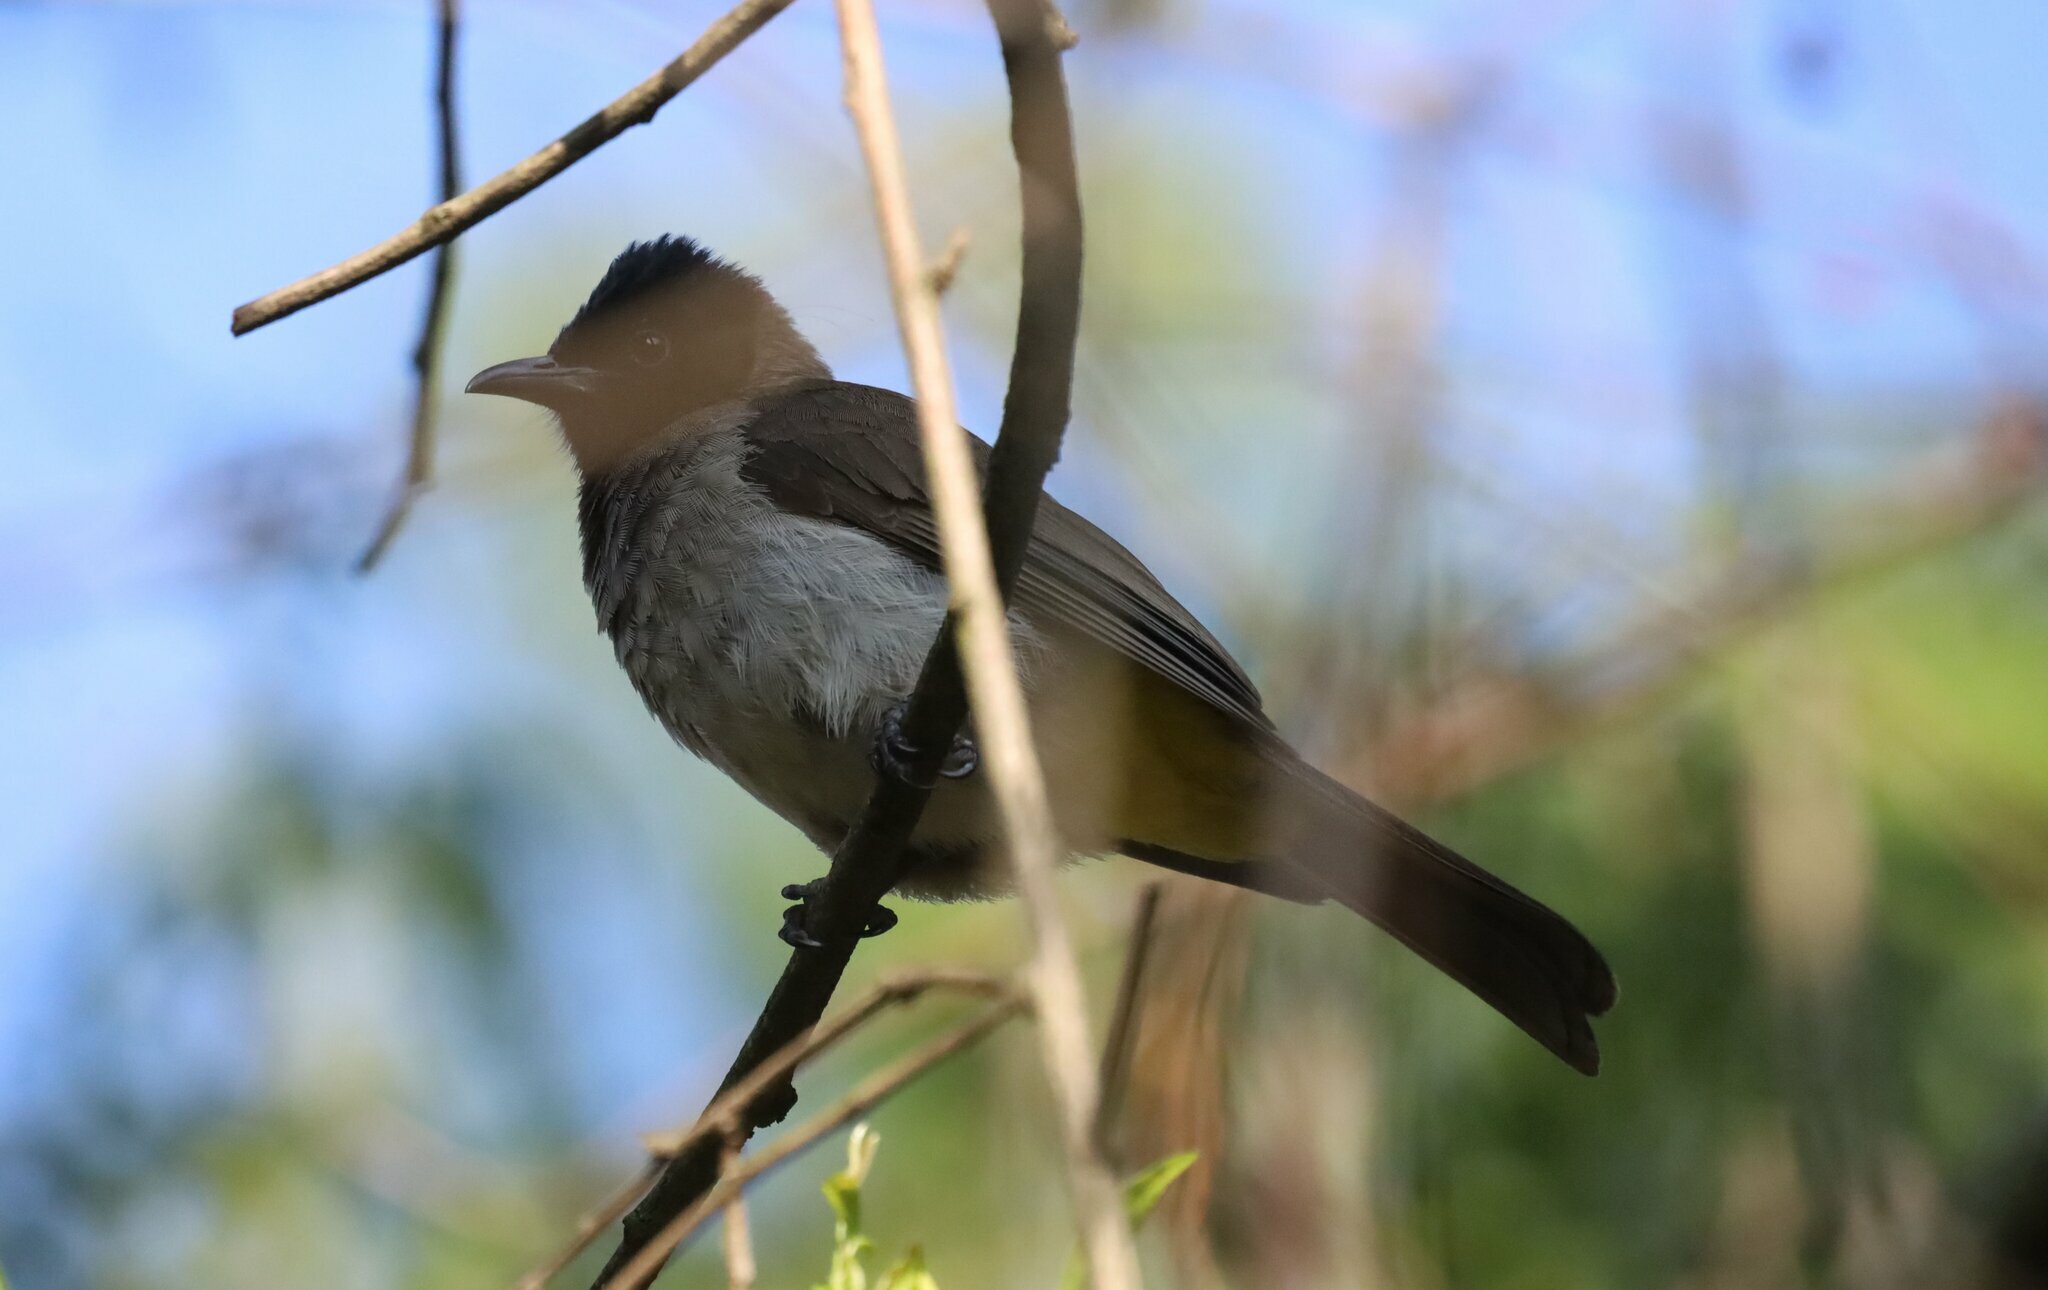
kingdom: Animalia
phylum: Chordata
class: Aves
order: Passeriformes
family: Pycnonotidae
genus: Pycnonotus
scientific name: Pycnonotus barbatus
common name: Common bulbul
